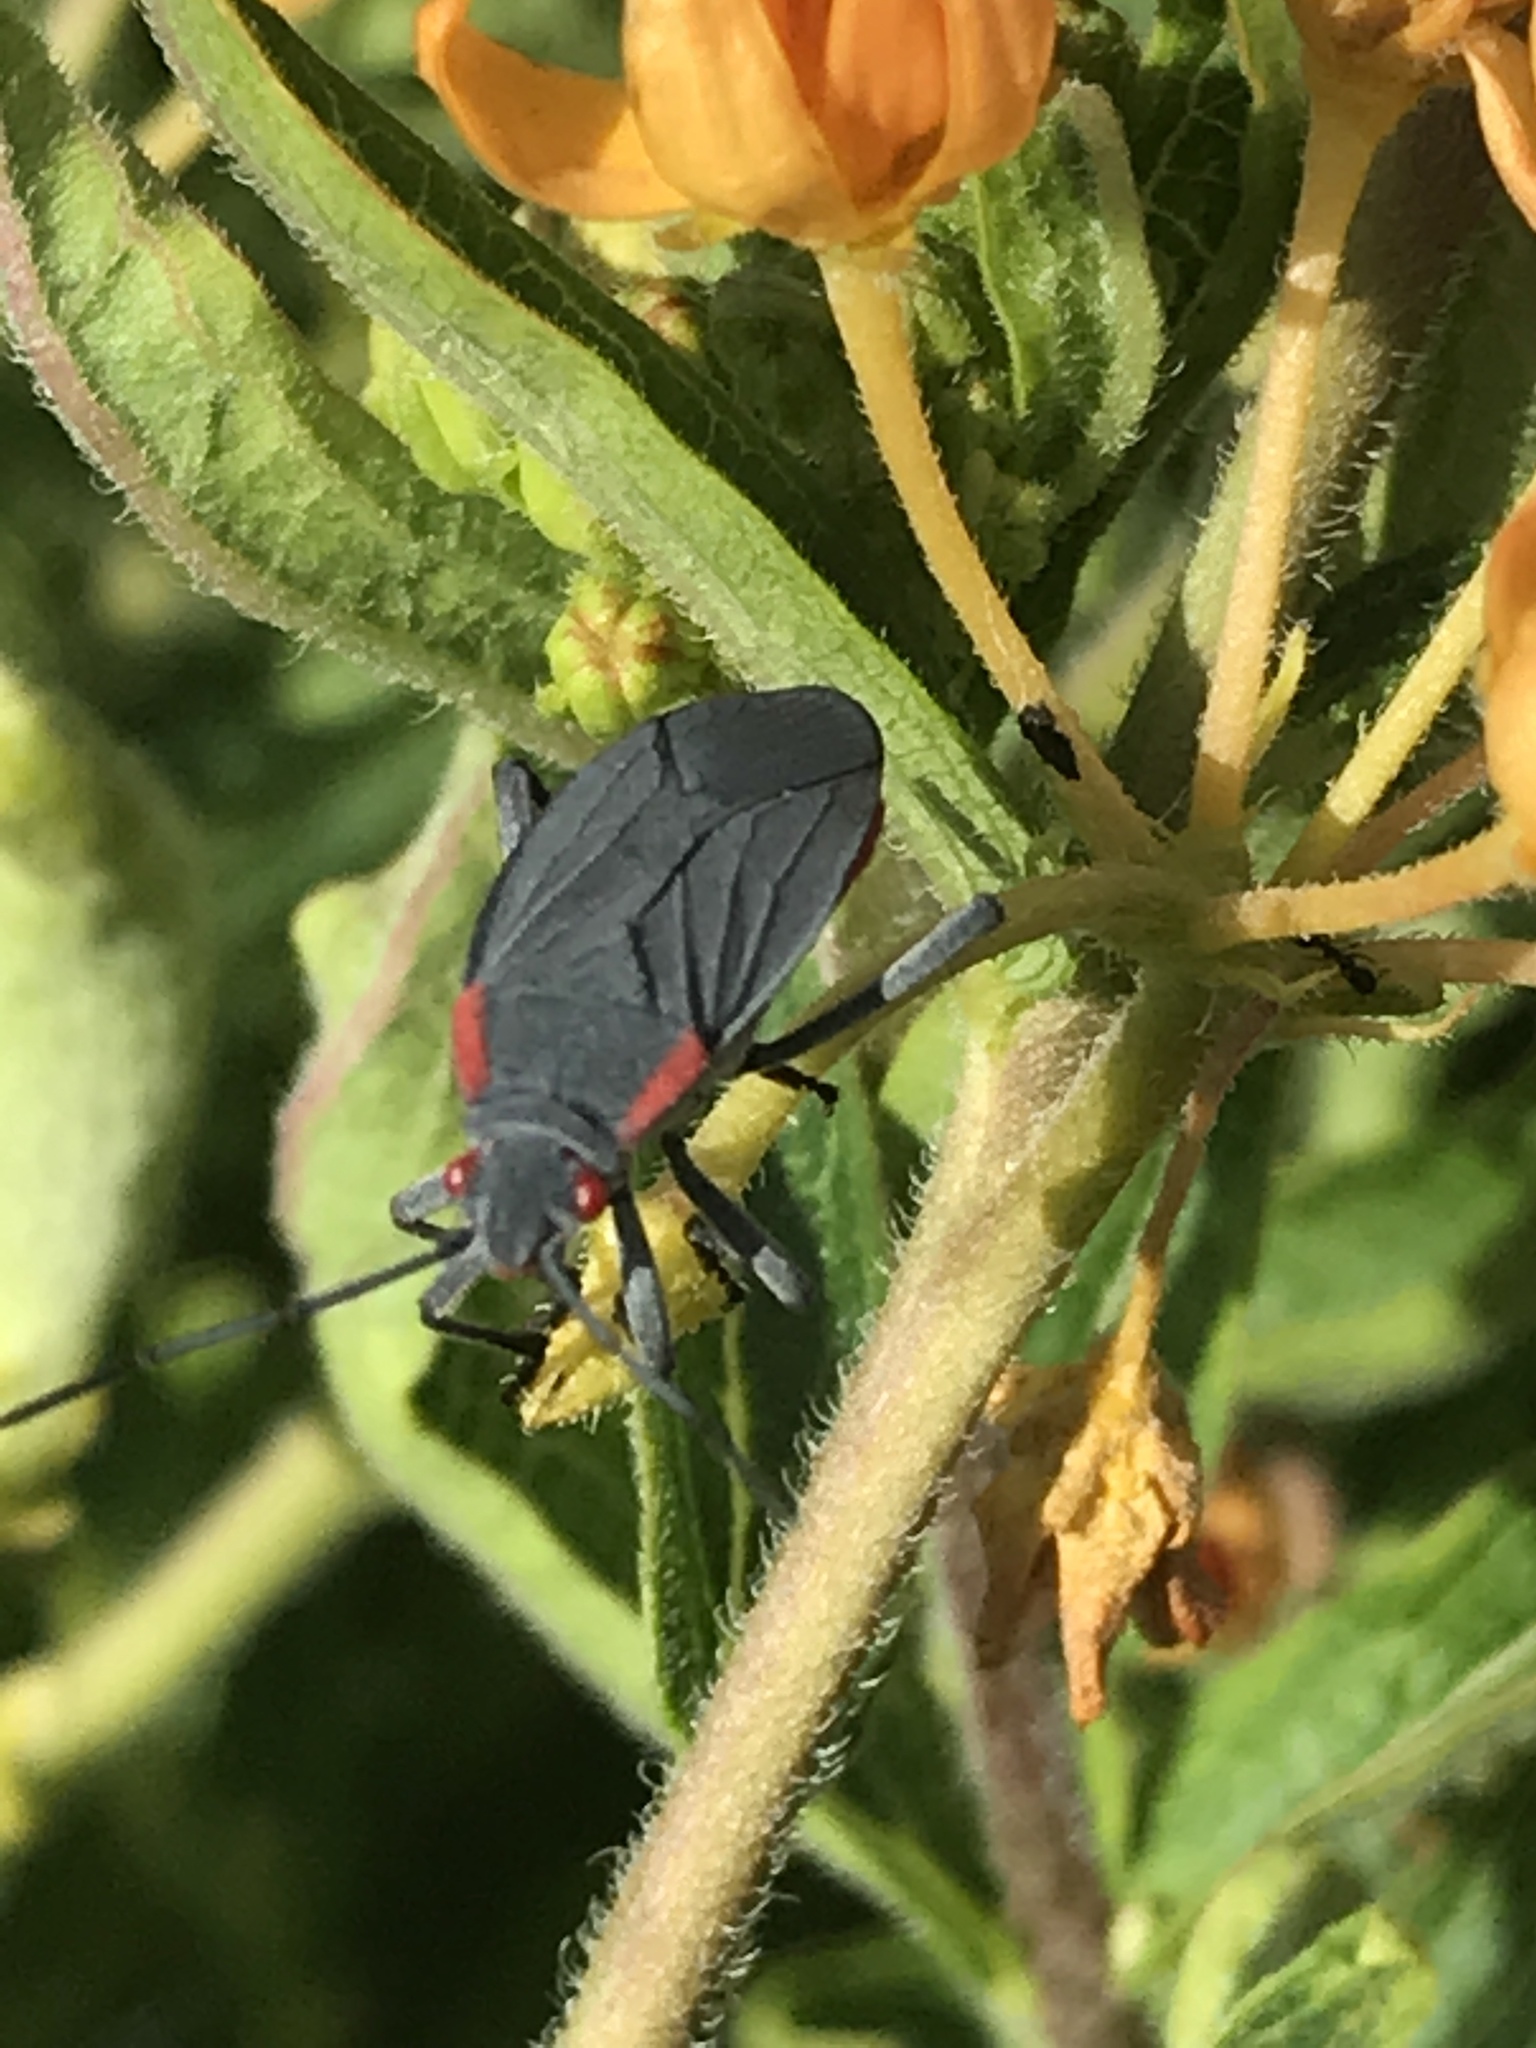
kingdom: Animalia
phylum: Arthropoda
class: Insecta
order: Hemiptera
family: Rhopalidae
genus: Jadera
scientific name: Jadera haematoloma
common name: Red-shouldered bug
